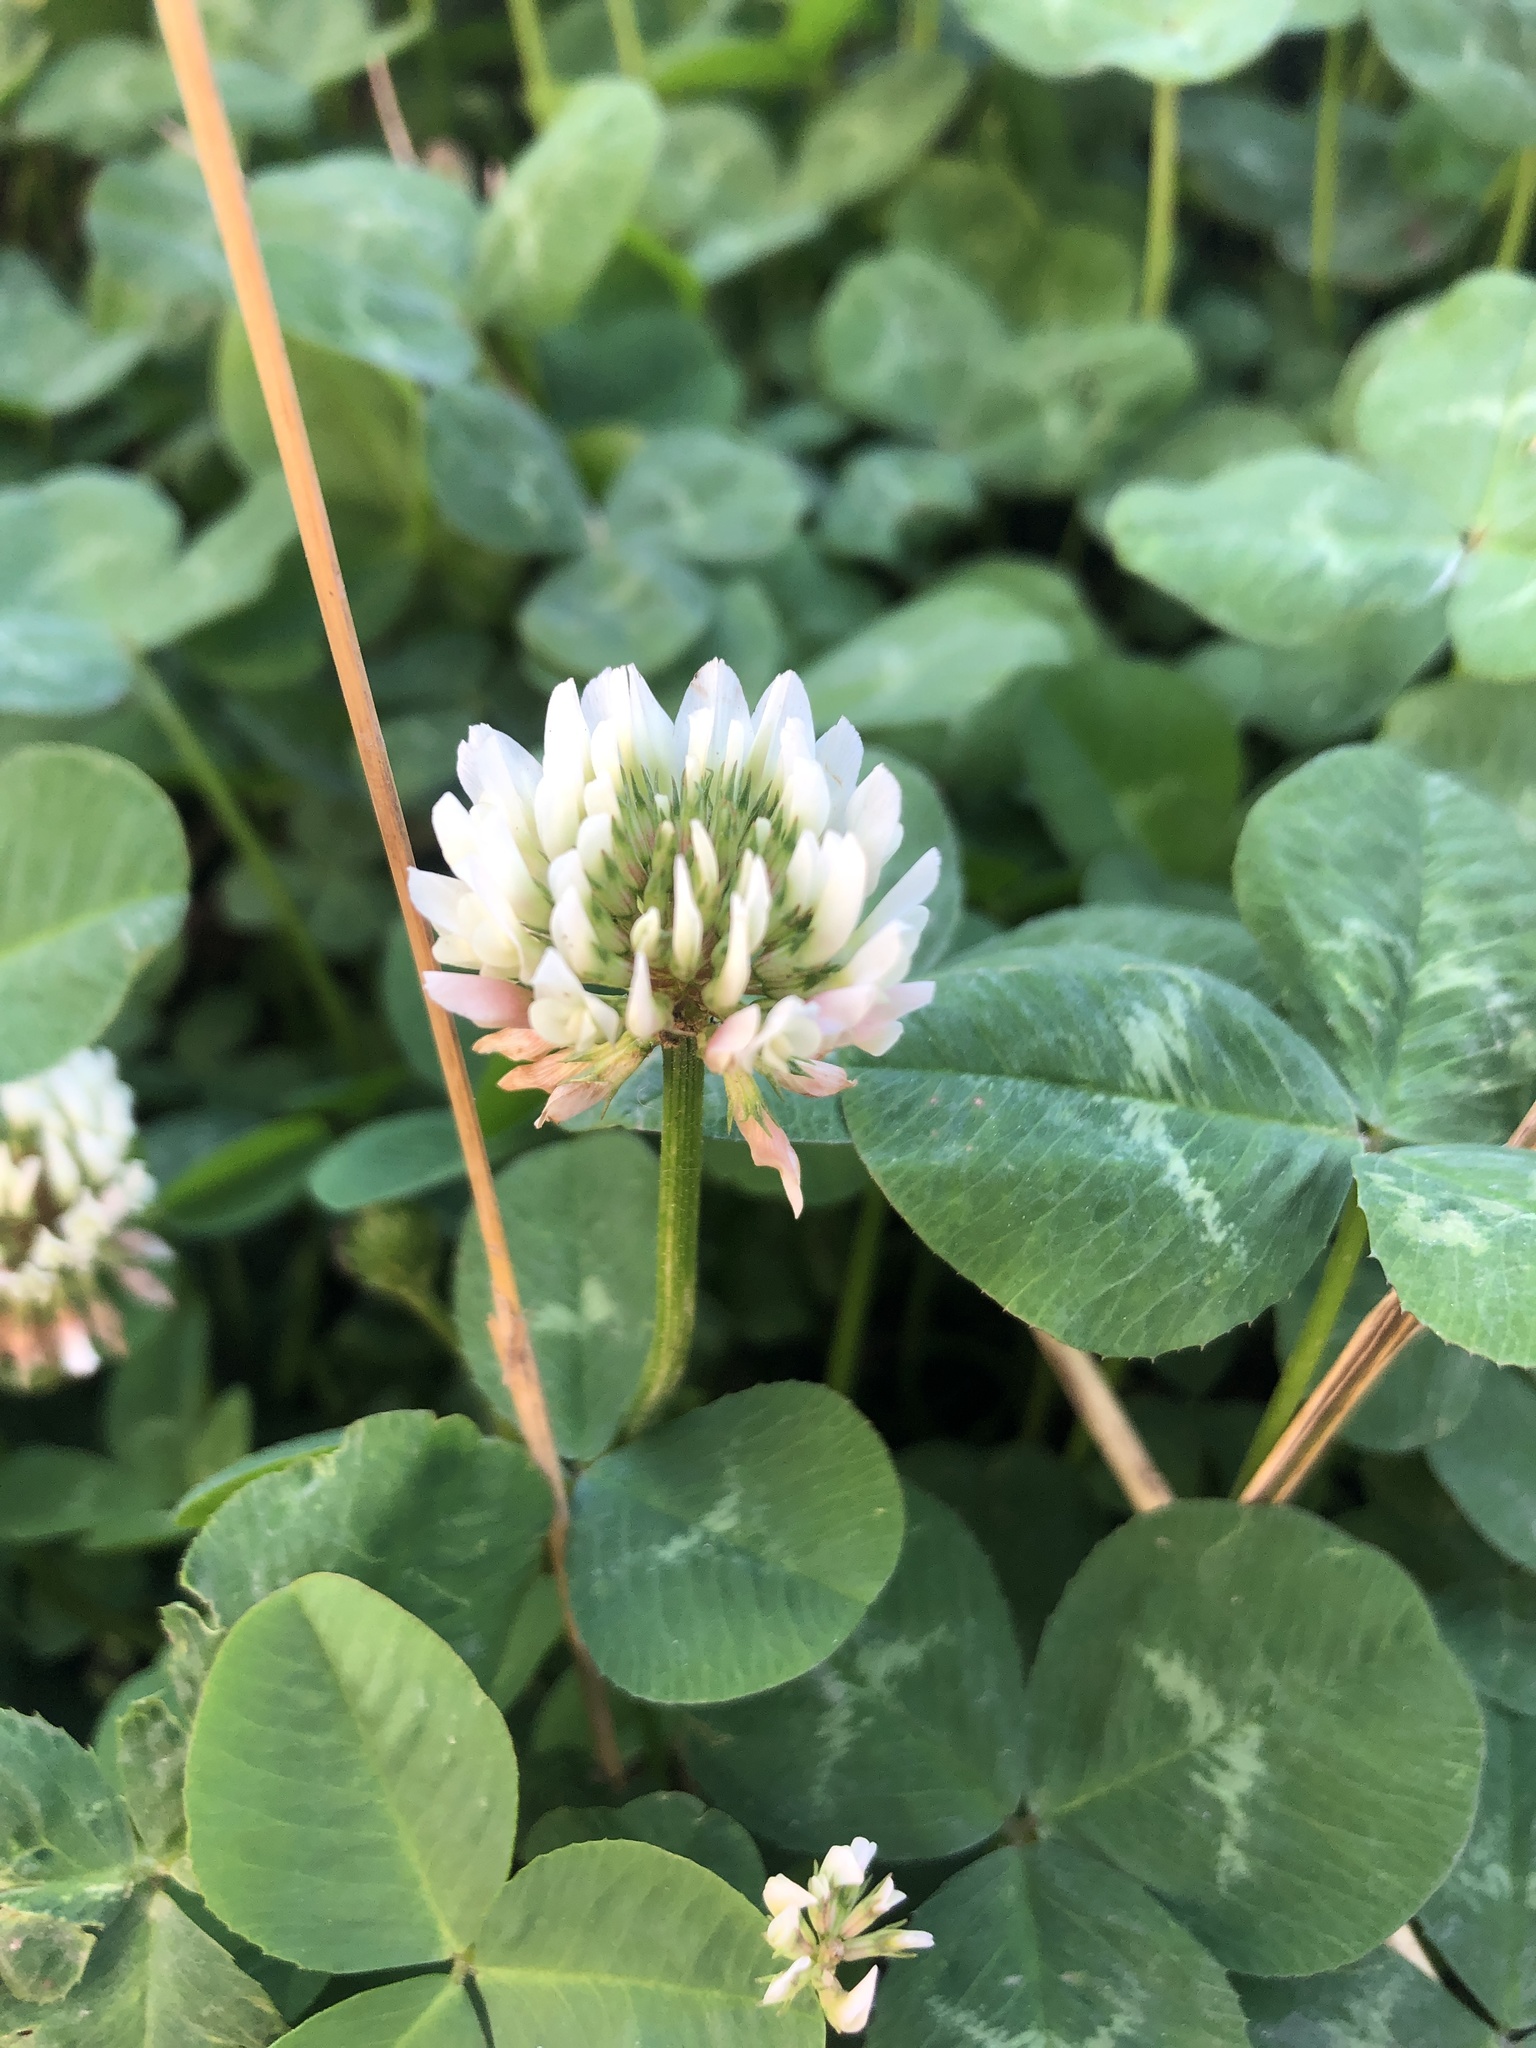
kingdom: Plantae
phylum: Tracheophyta
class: Magnoliopsida
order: Fabales
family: Fabaceae
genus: Trifolium
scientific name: Trifolium repens
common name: White clover
